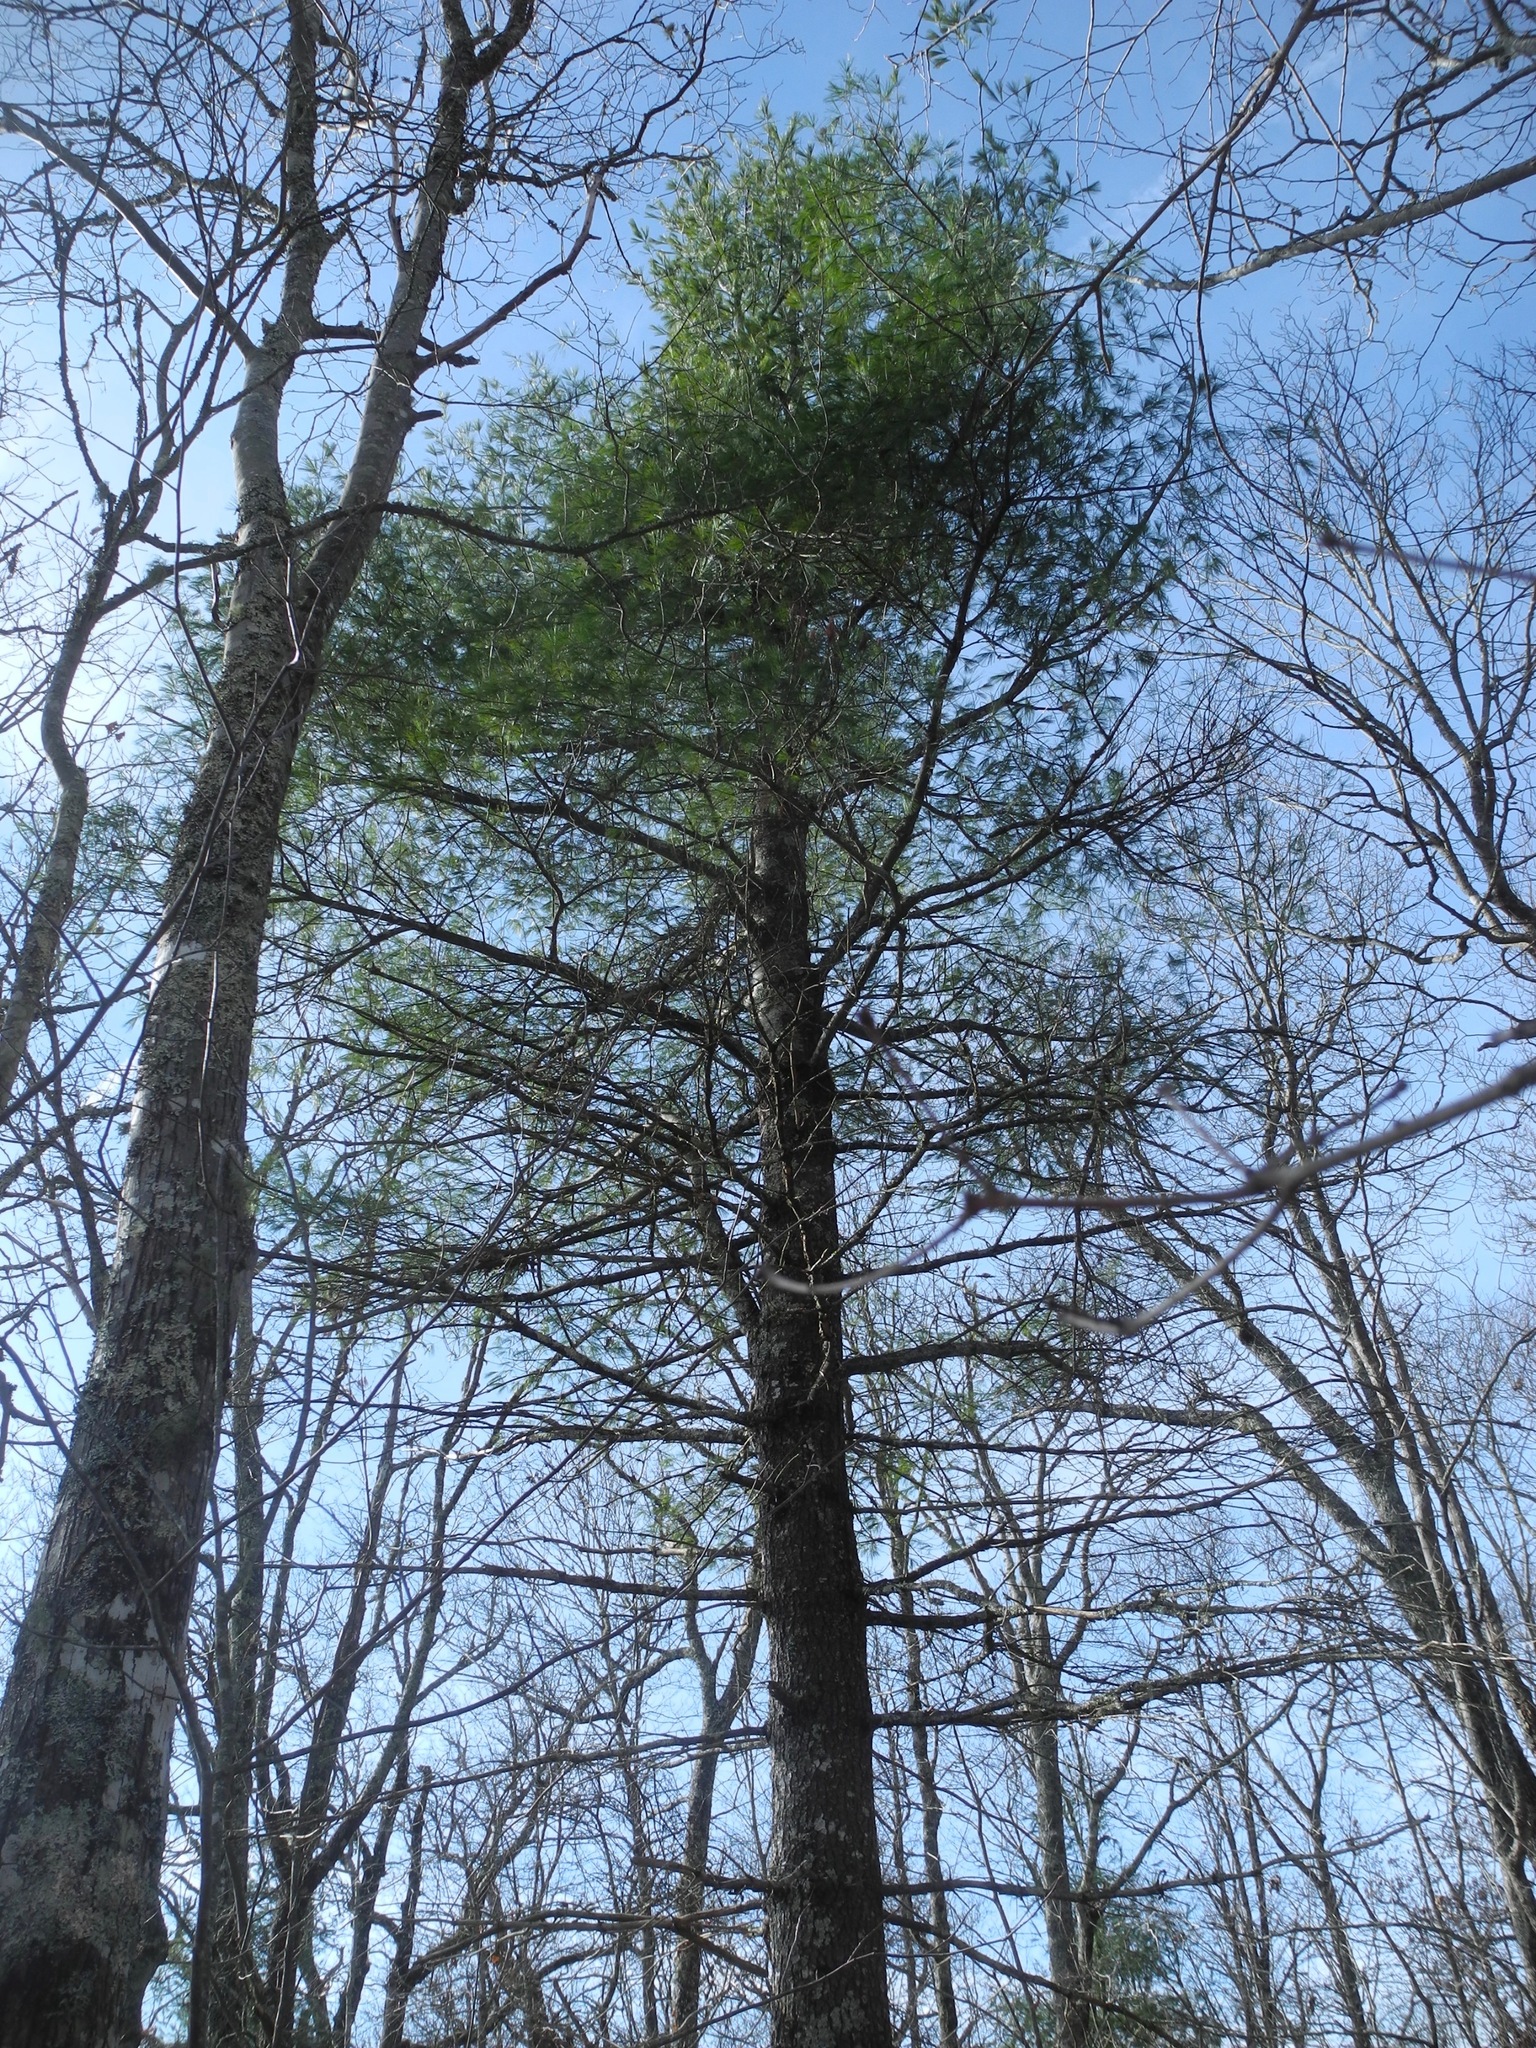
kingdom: Plantae
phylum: Tracheophyta
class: Pinopsida
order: Pinales
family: Pinaceae
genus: Pinus
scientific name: Pinus strobus
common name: Weymouth pine
